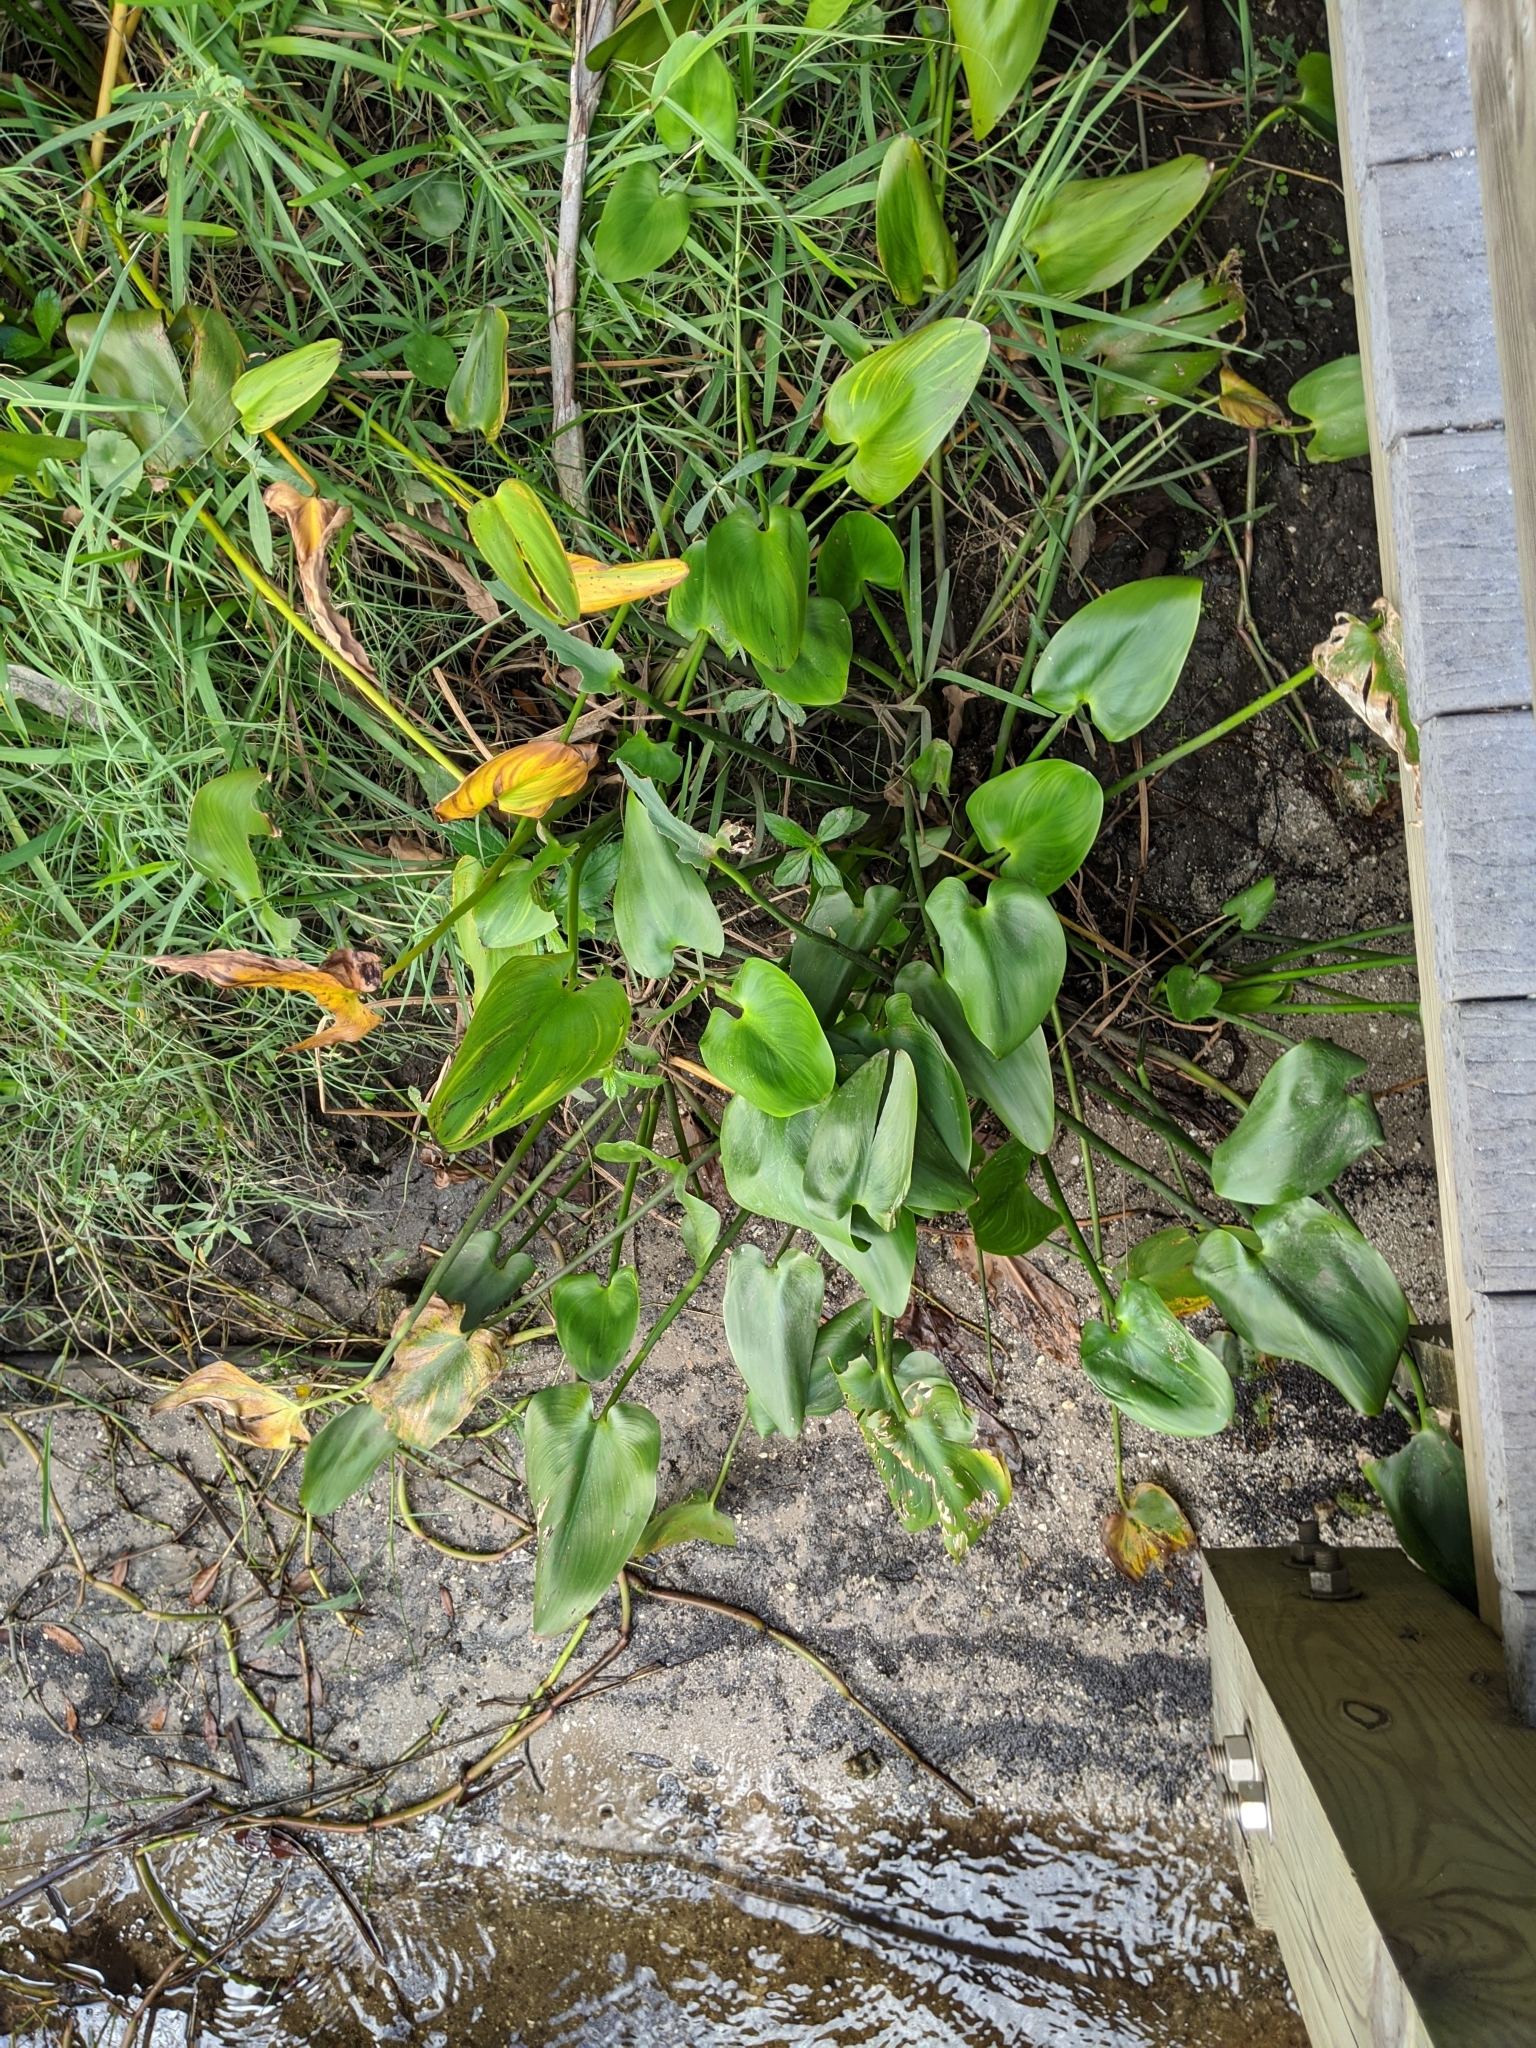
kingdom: Plantae
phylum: Tracheophyta
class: Liliopsida
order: Commelinales
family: Pontederiaceae
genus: Pontederia
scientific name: Pontederia cordata
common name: Pickerelweed
